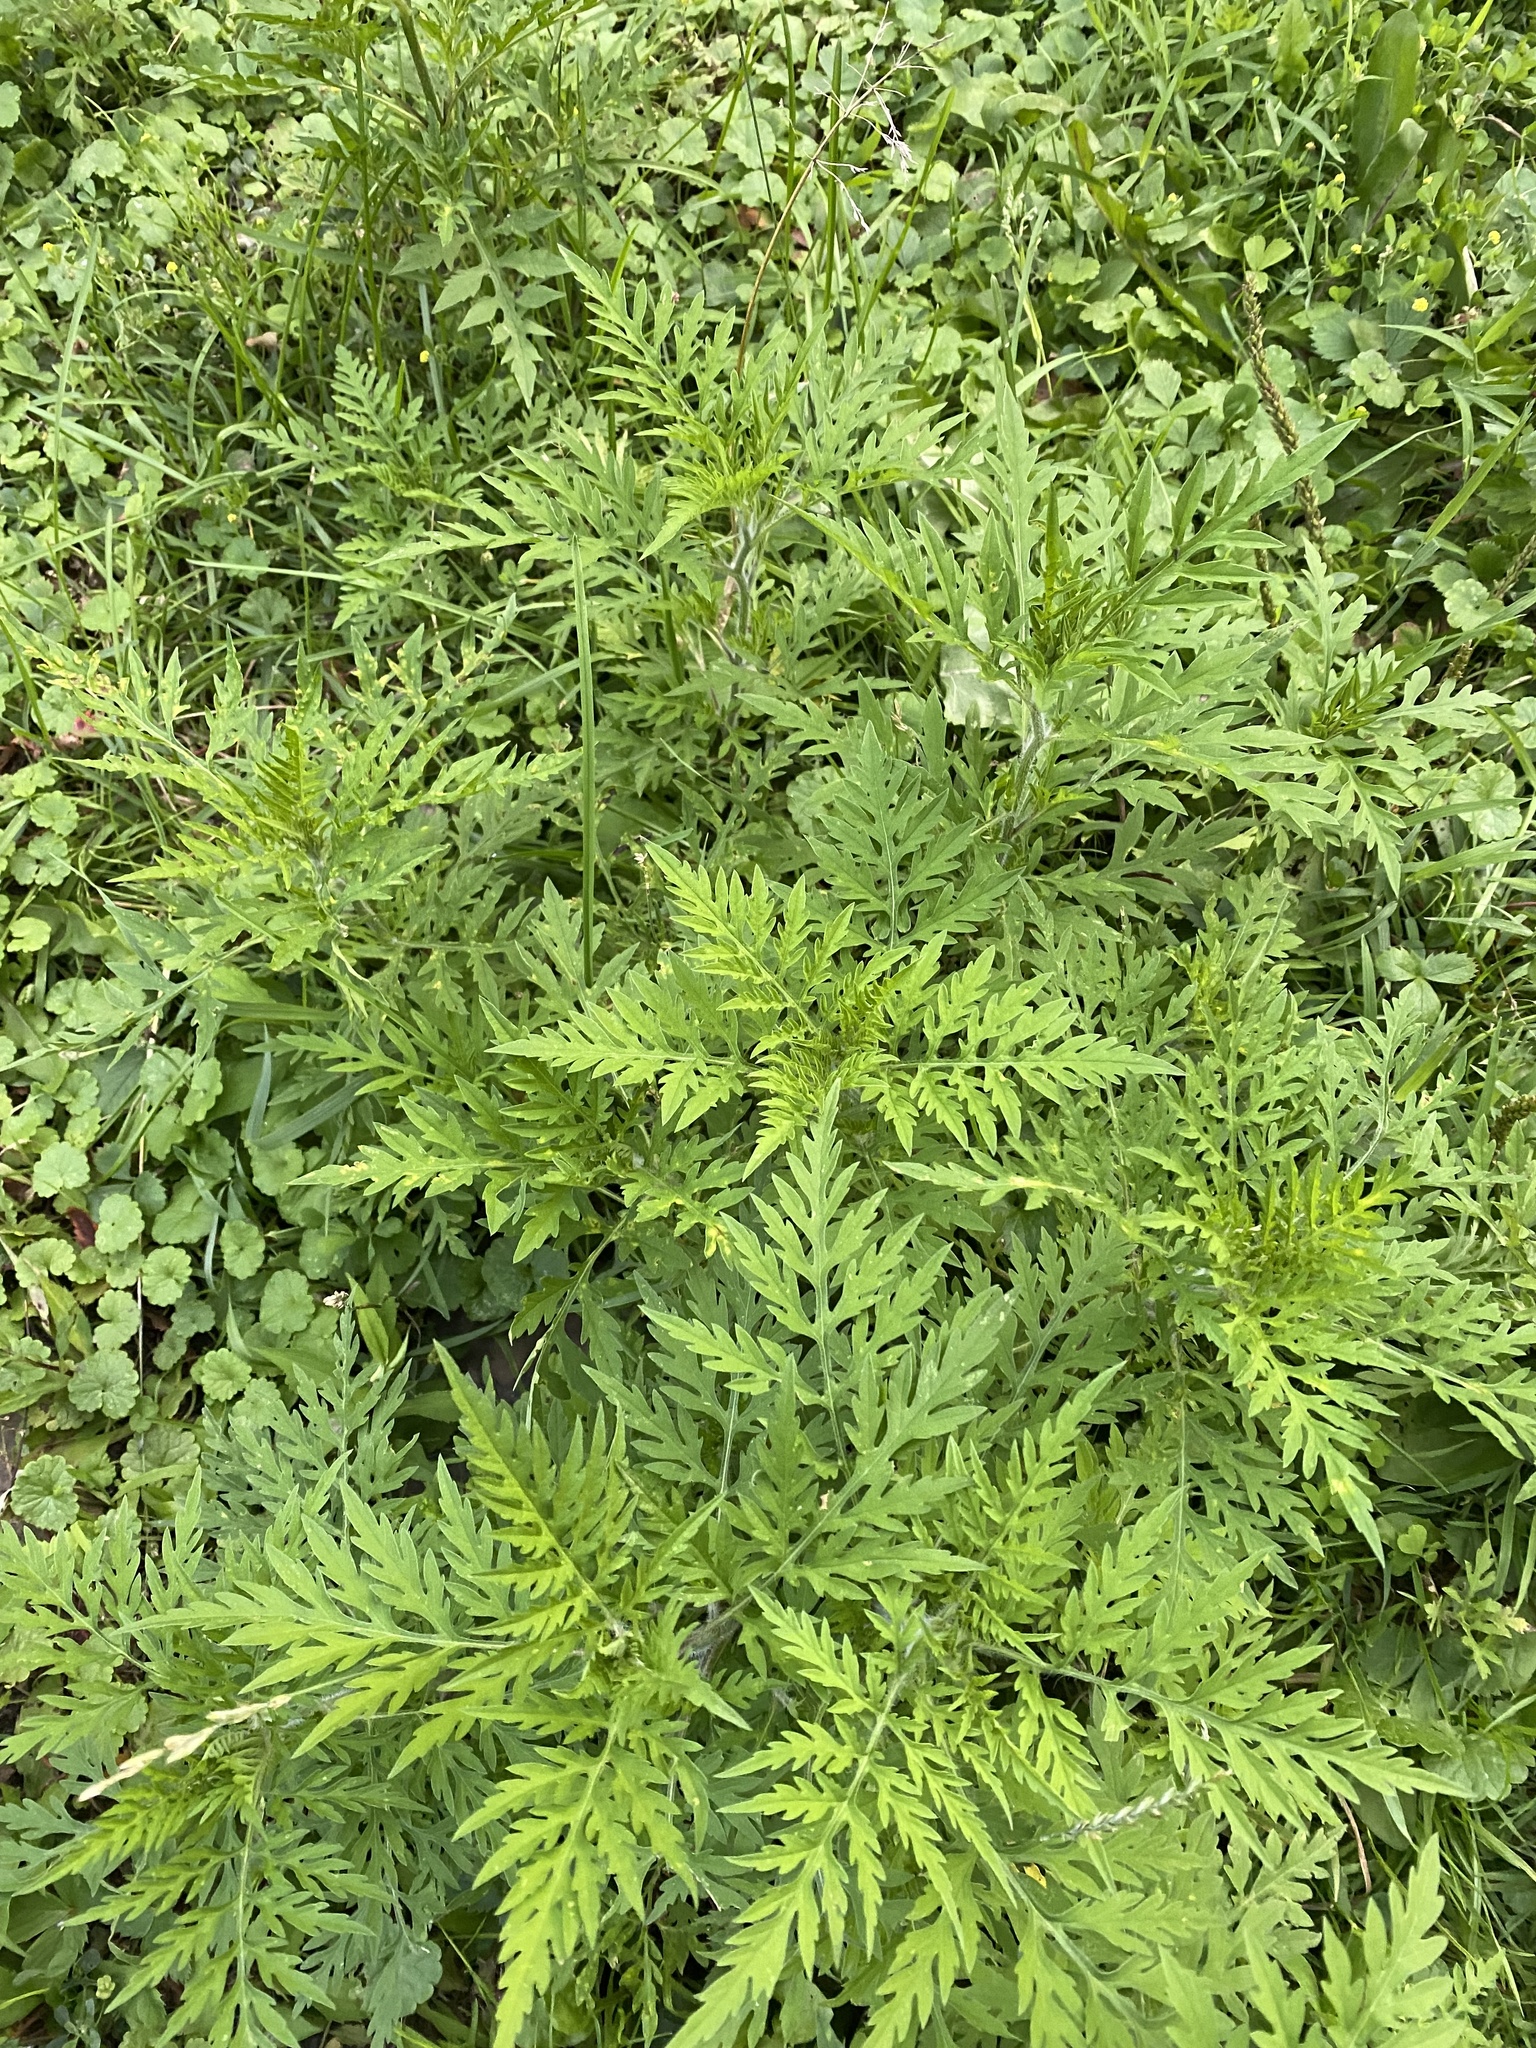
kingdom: Plantae
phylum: Tracheophyta
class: Magnoliopsida
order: Asterales
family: Asteraceae
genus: Ambrosia
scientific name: Ambrosia artemisiifolia
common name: Annual ragweed
